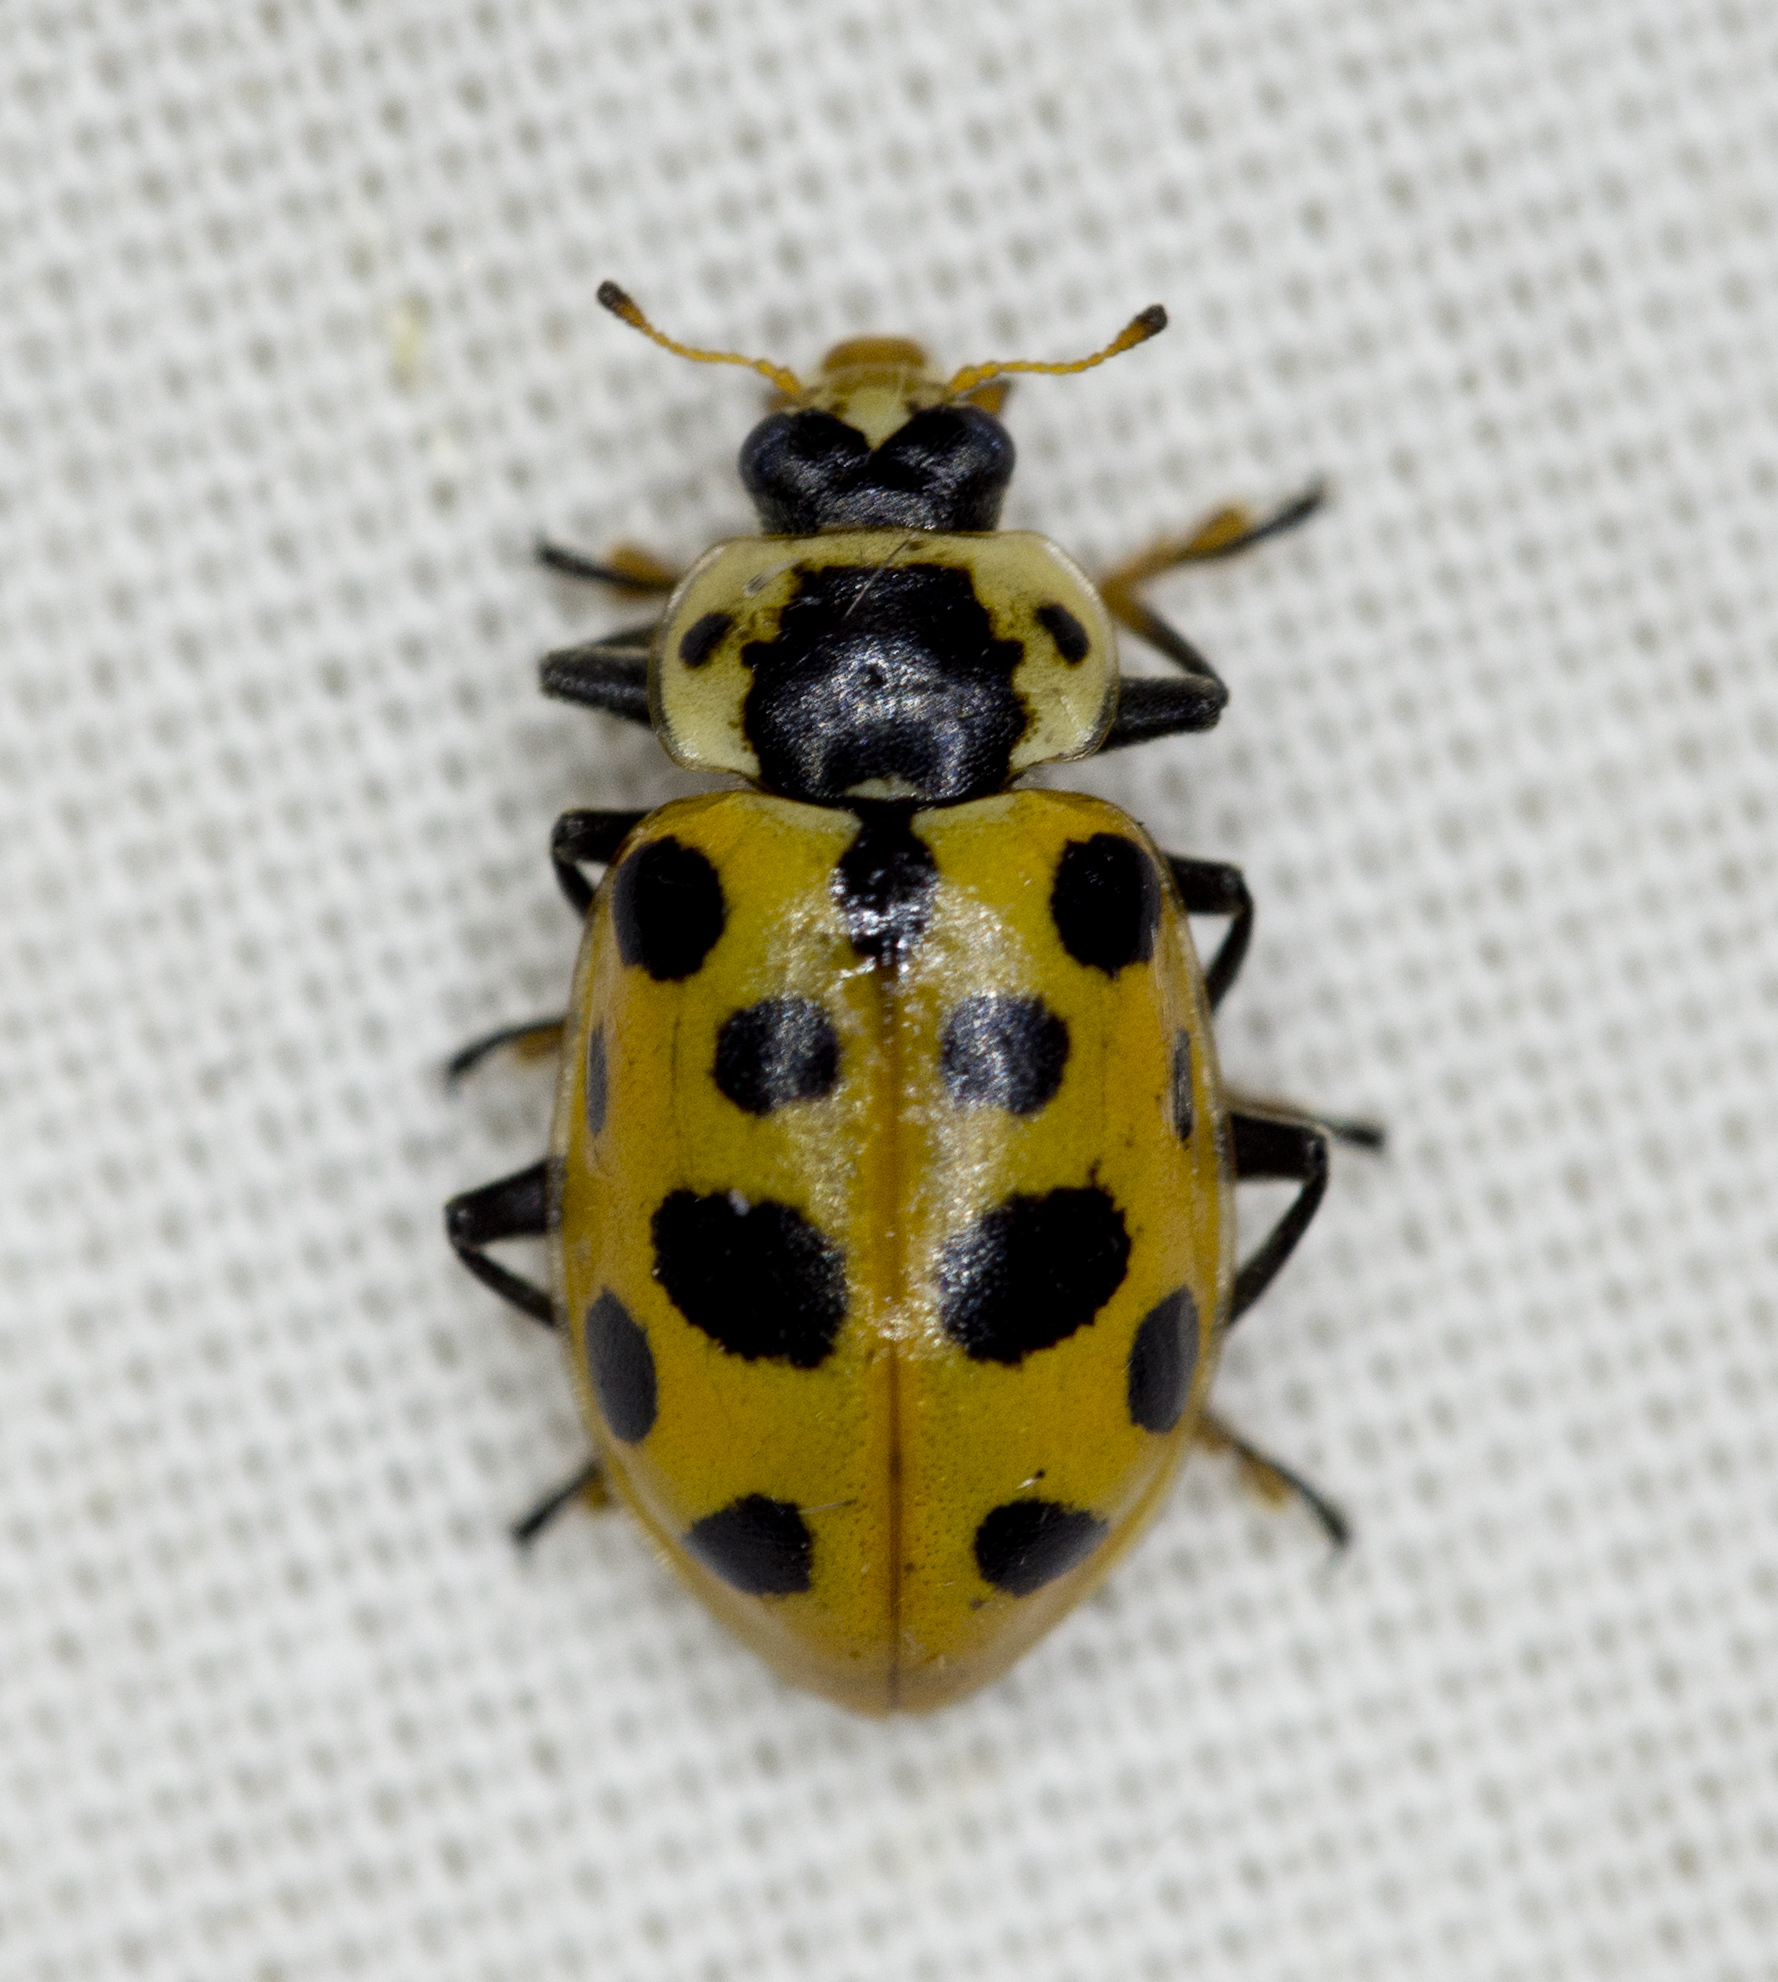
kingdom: Animalia
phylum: Arthropoda
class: Insecta
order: Coleoptera
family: Coccinellidae
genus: Hippodamia
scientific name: Hippodamia tredecimpunctata
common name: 13-spot ladybird
